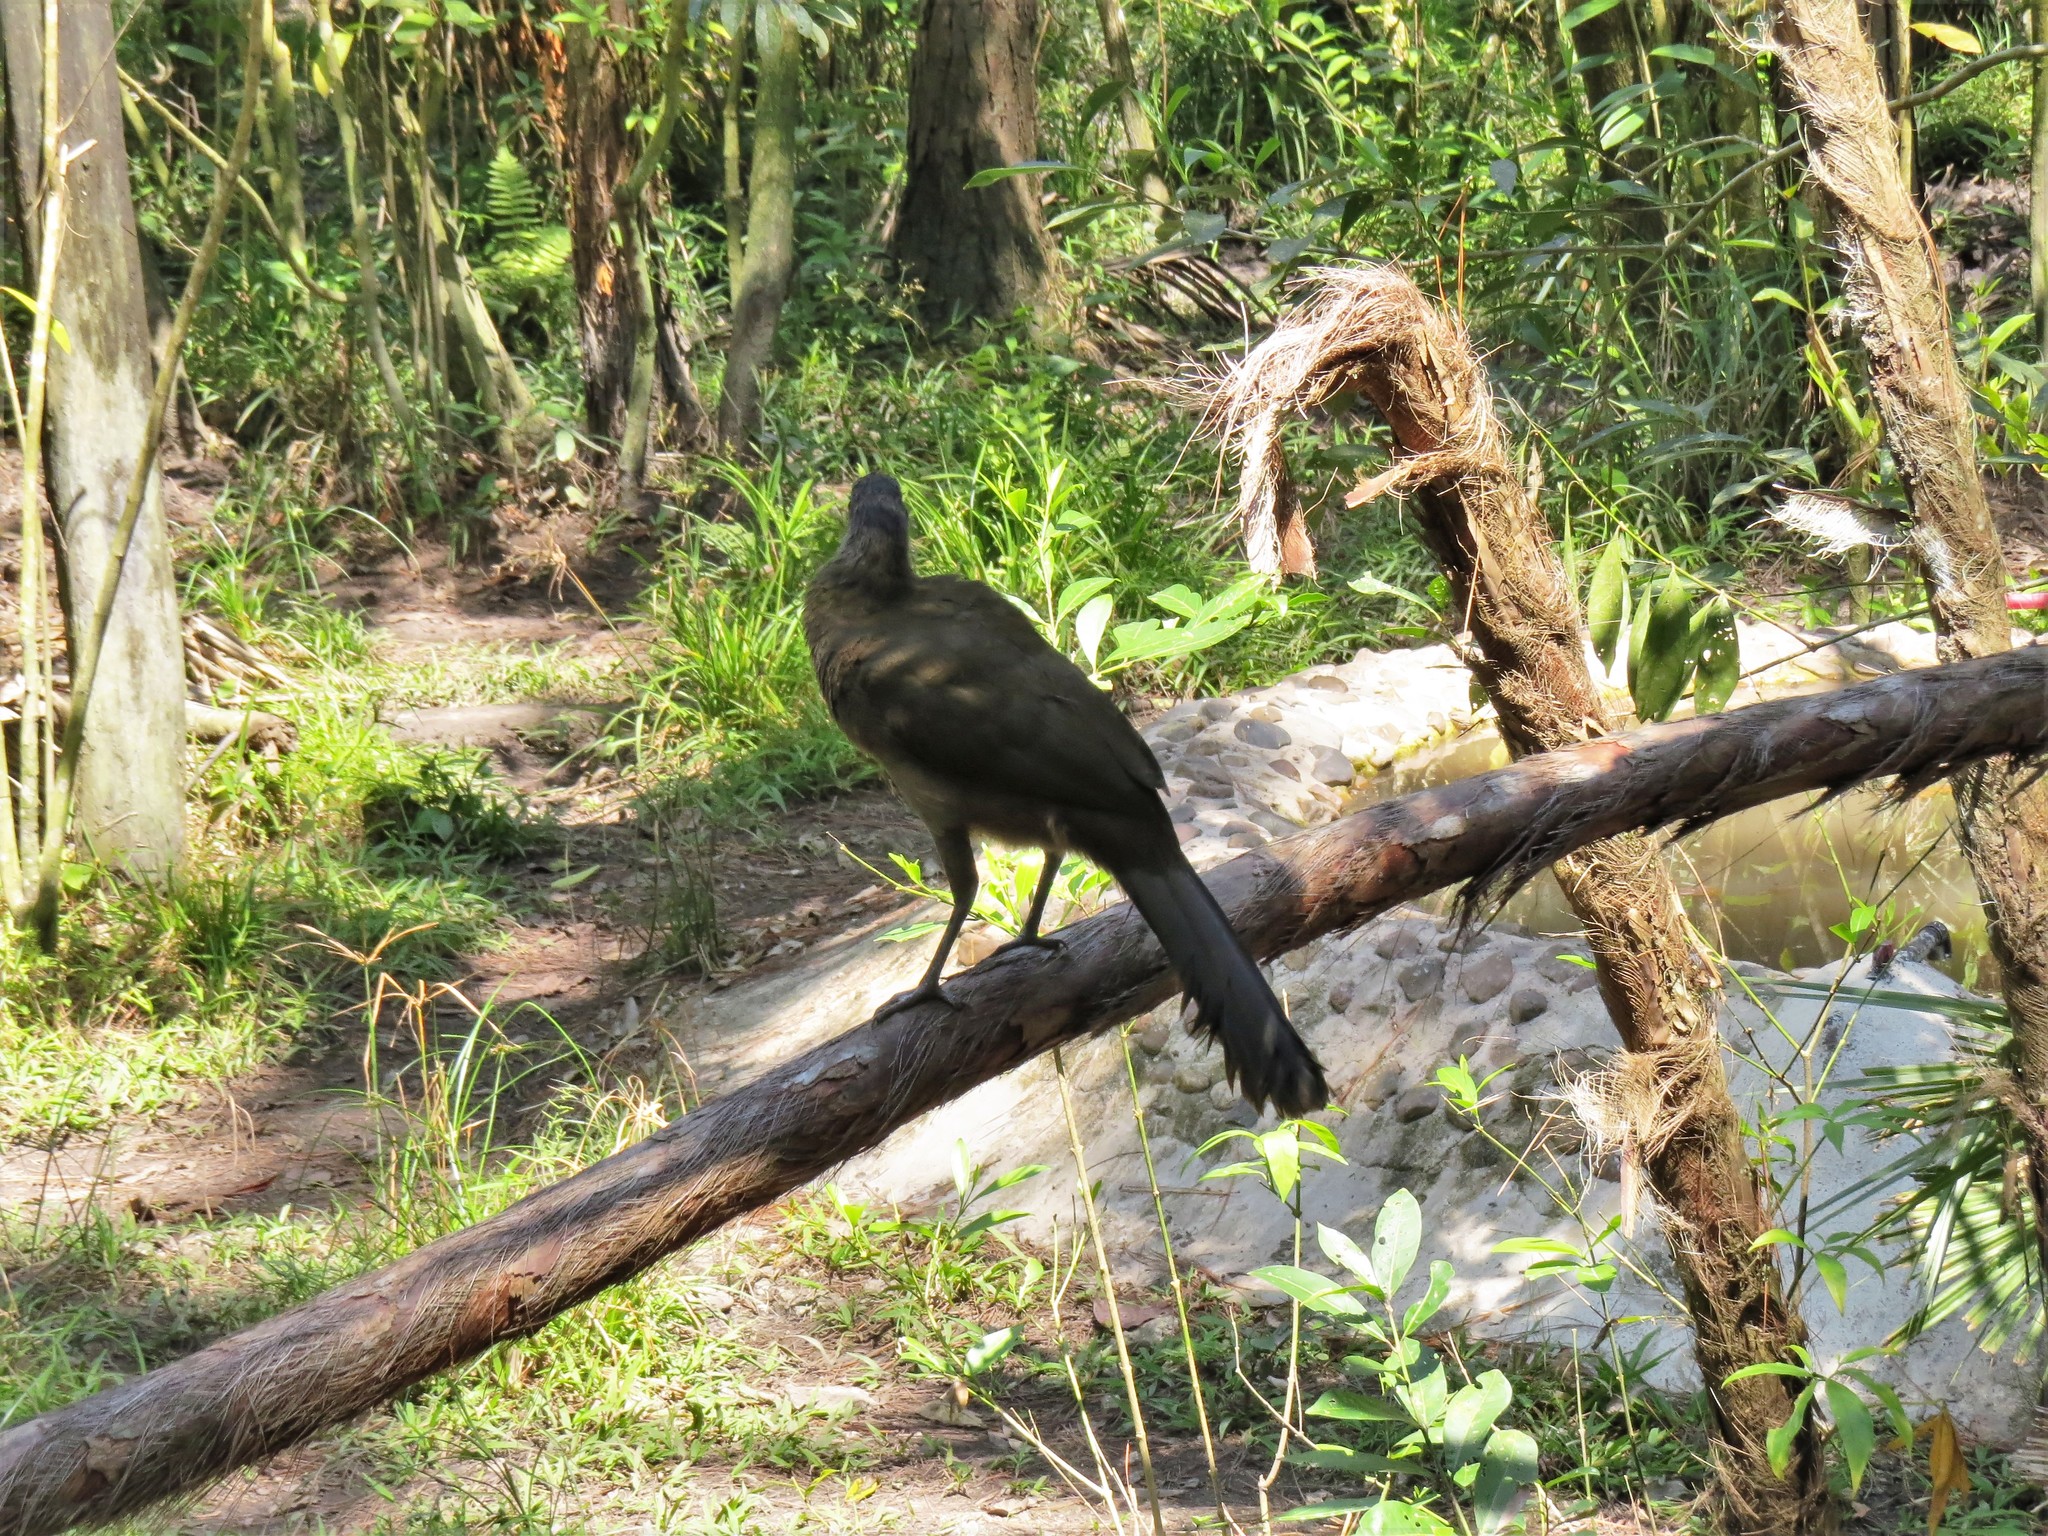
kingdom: Animalia
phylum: Chordata
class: Aves
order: Galliformes
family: Cracidae
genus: Ortalis
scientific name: Ortalis vetula
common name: Plain chachalaca
